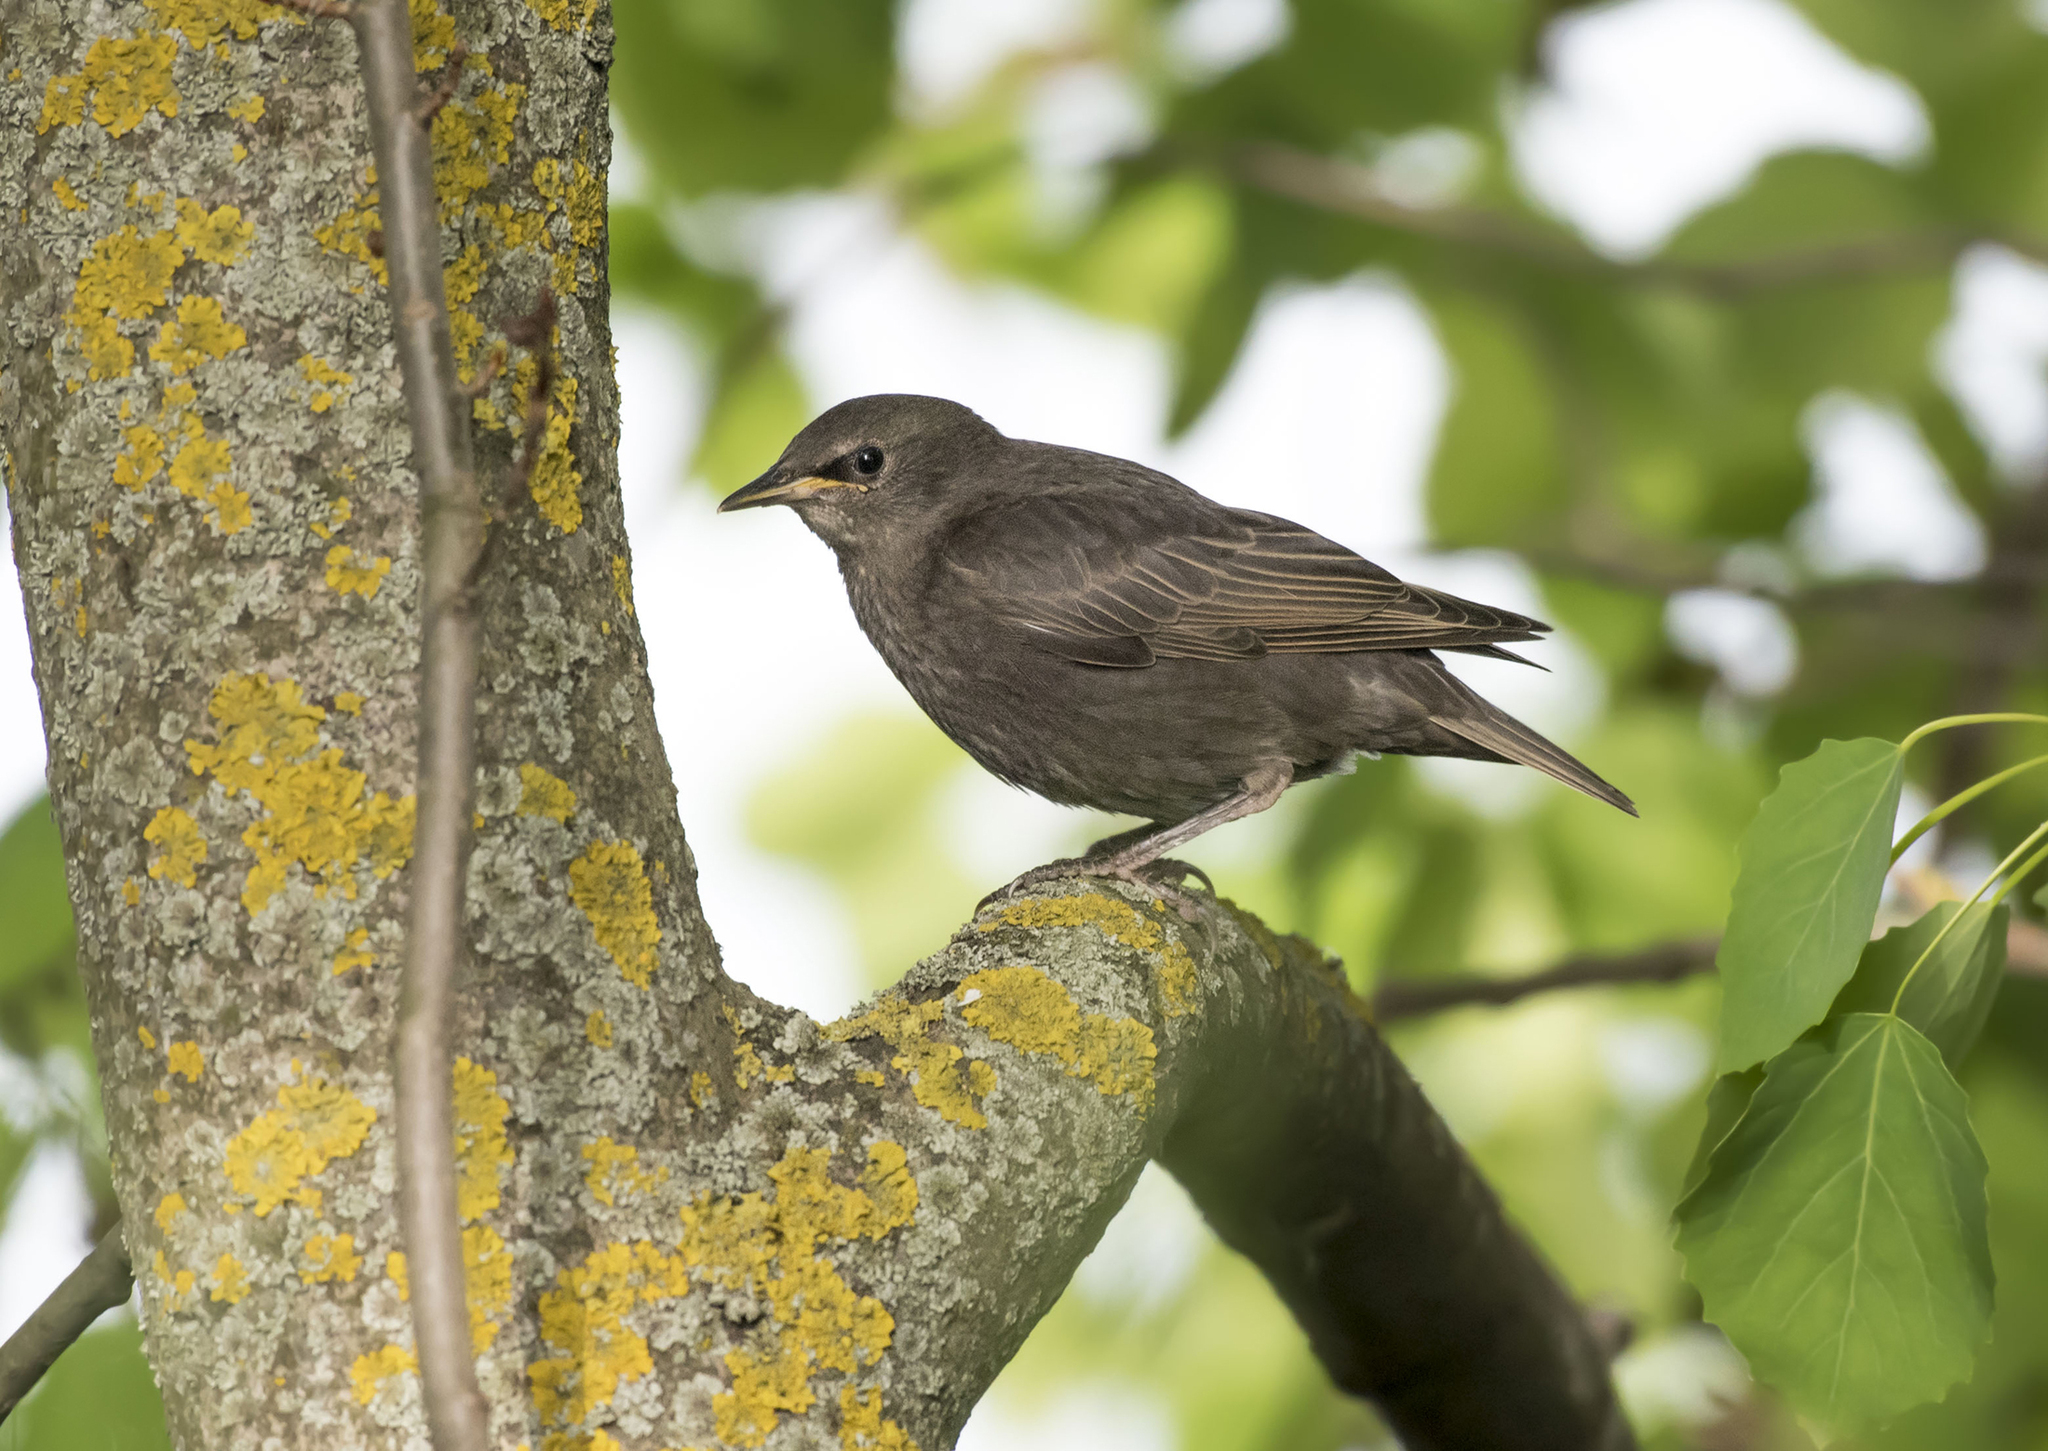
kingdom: Animalia
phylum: Chordata
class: Aves
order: Passeriformes
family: Sturnidae
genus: Sturnus
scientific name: Sturnus vulgaris
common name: Common starling
